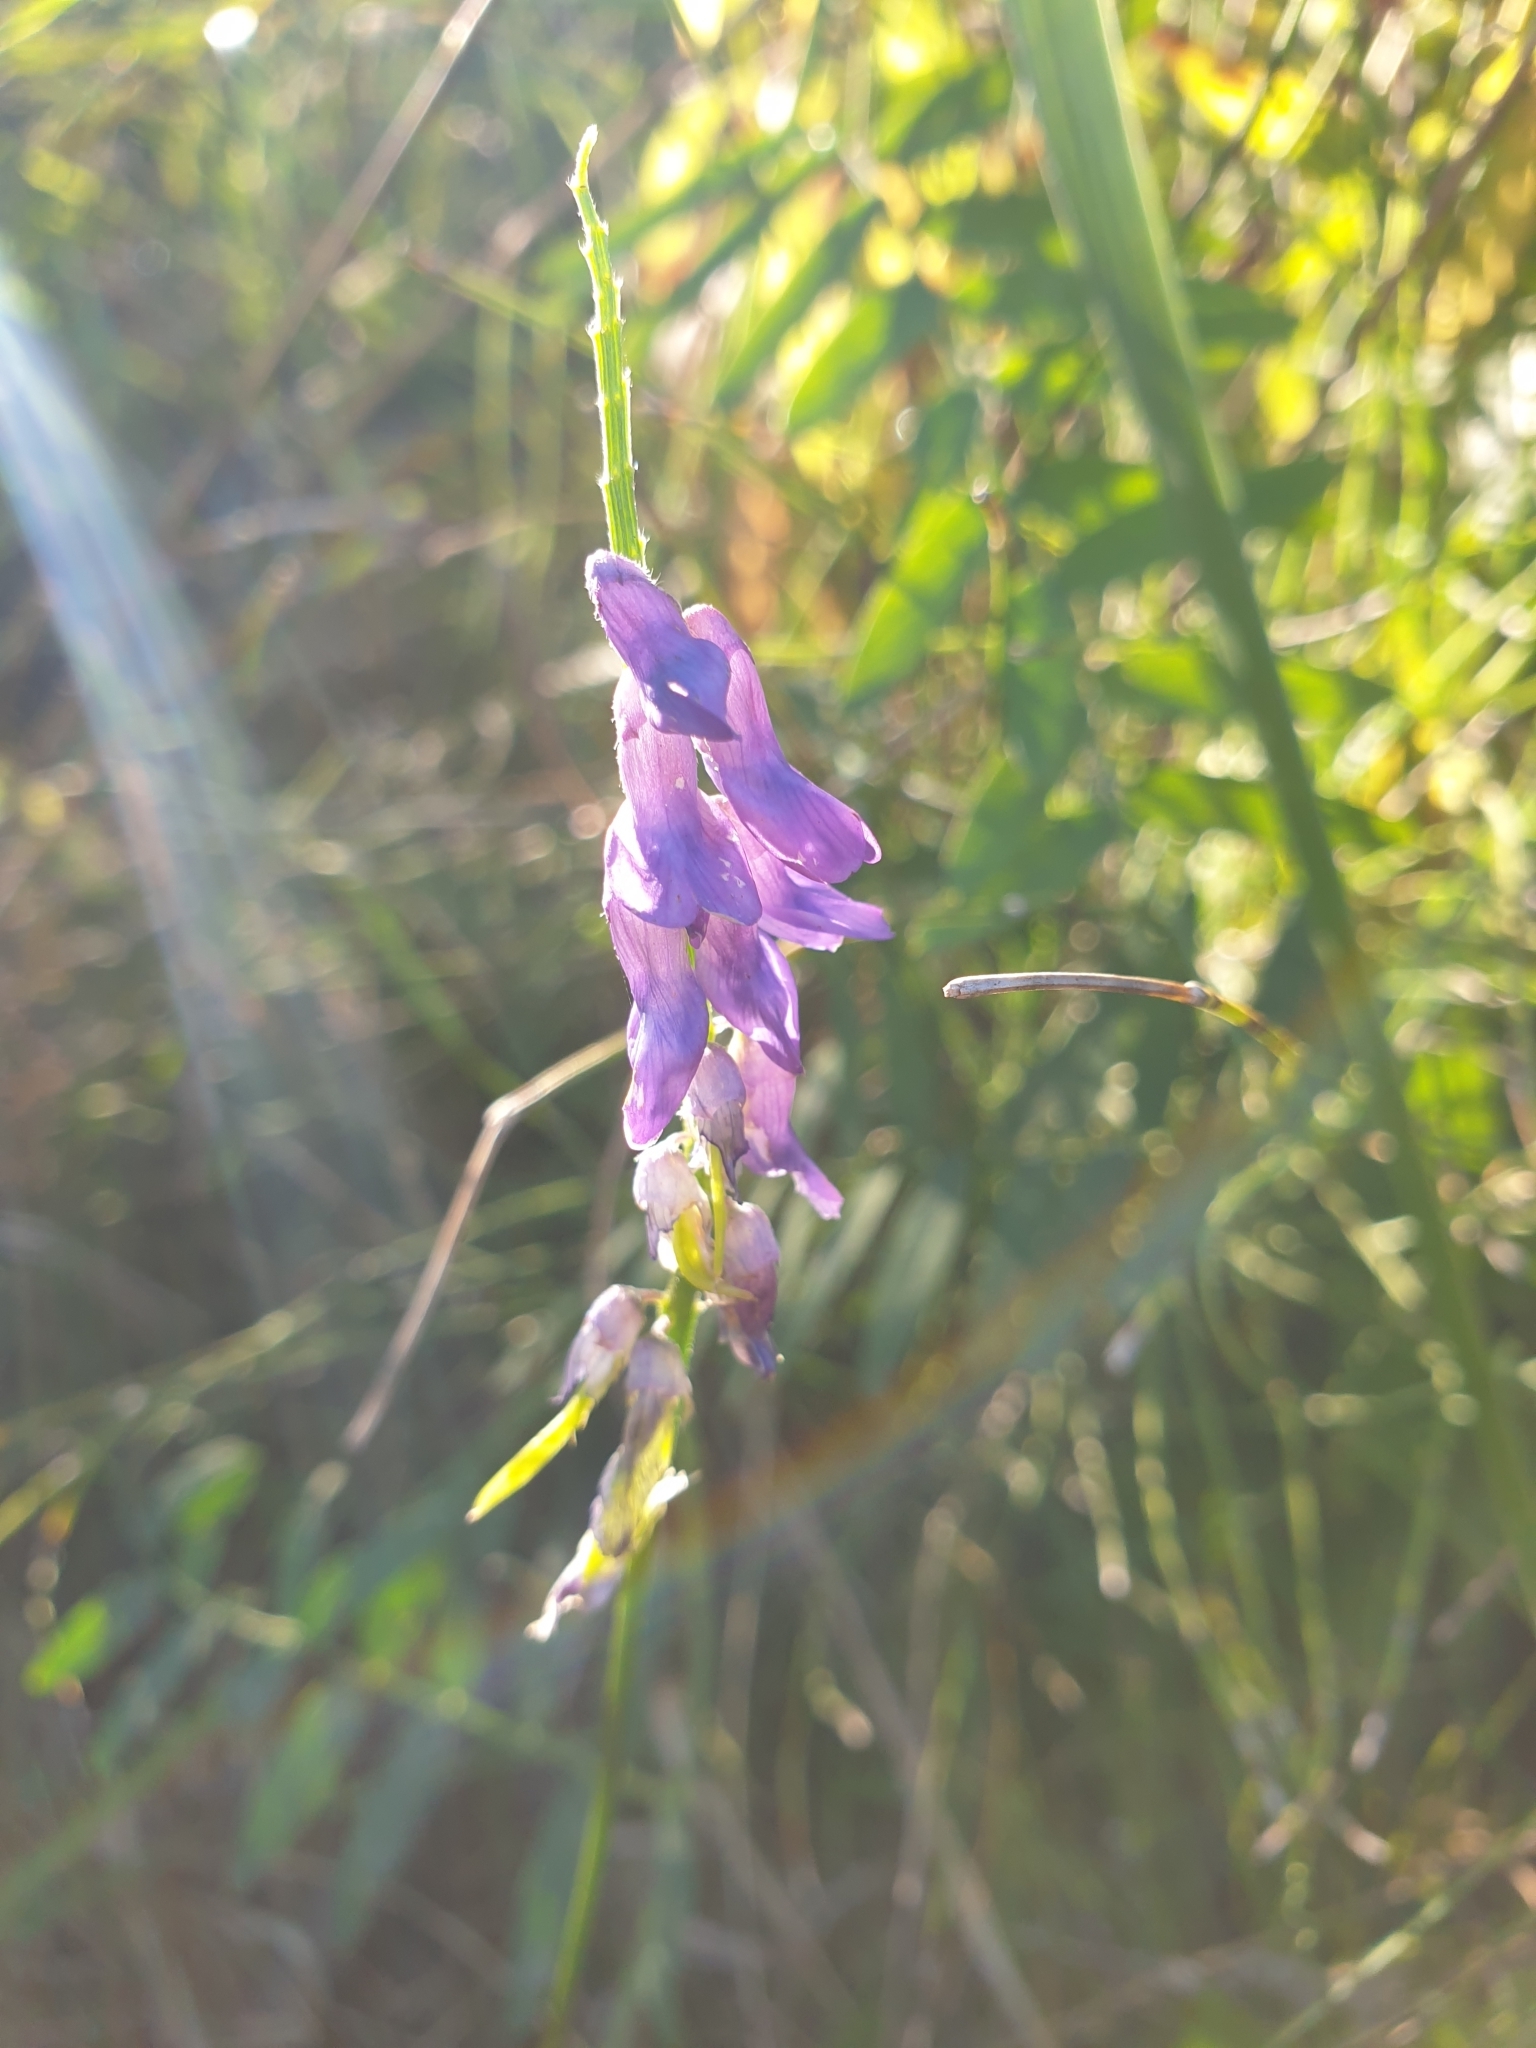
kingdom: Plantae
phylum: Tracheophyta
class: Magnoliopsida
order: Fabales
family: Fabaceae
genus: Vicia
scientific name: Vicia cracca
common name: Bird vetch
